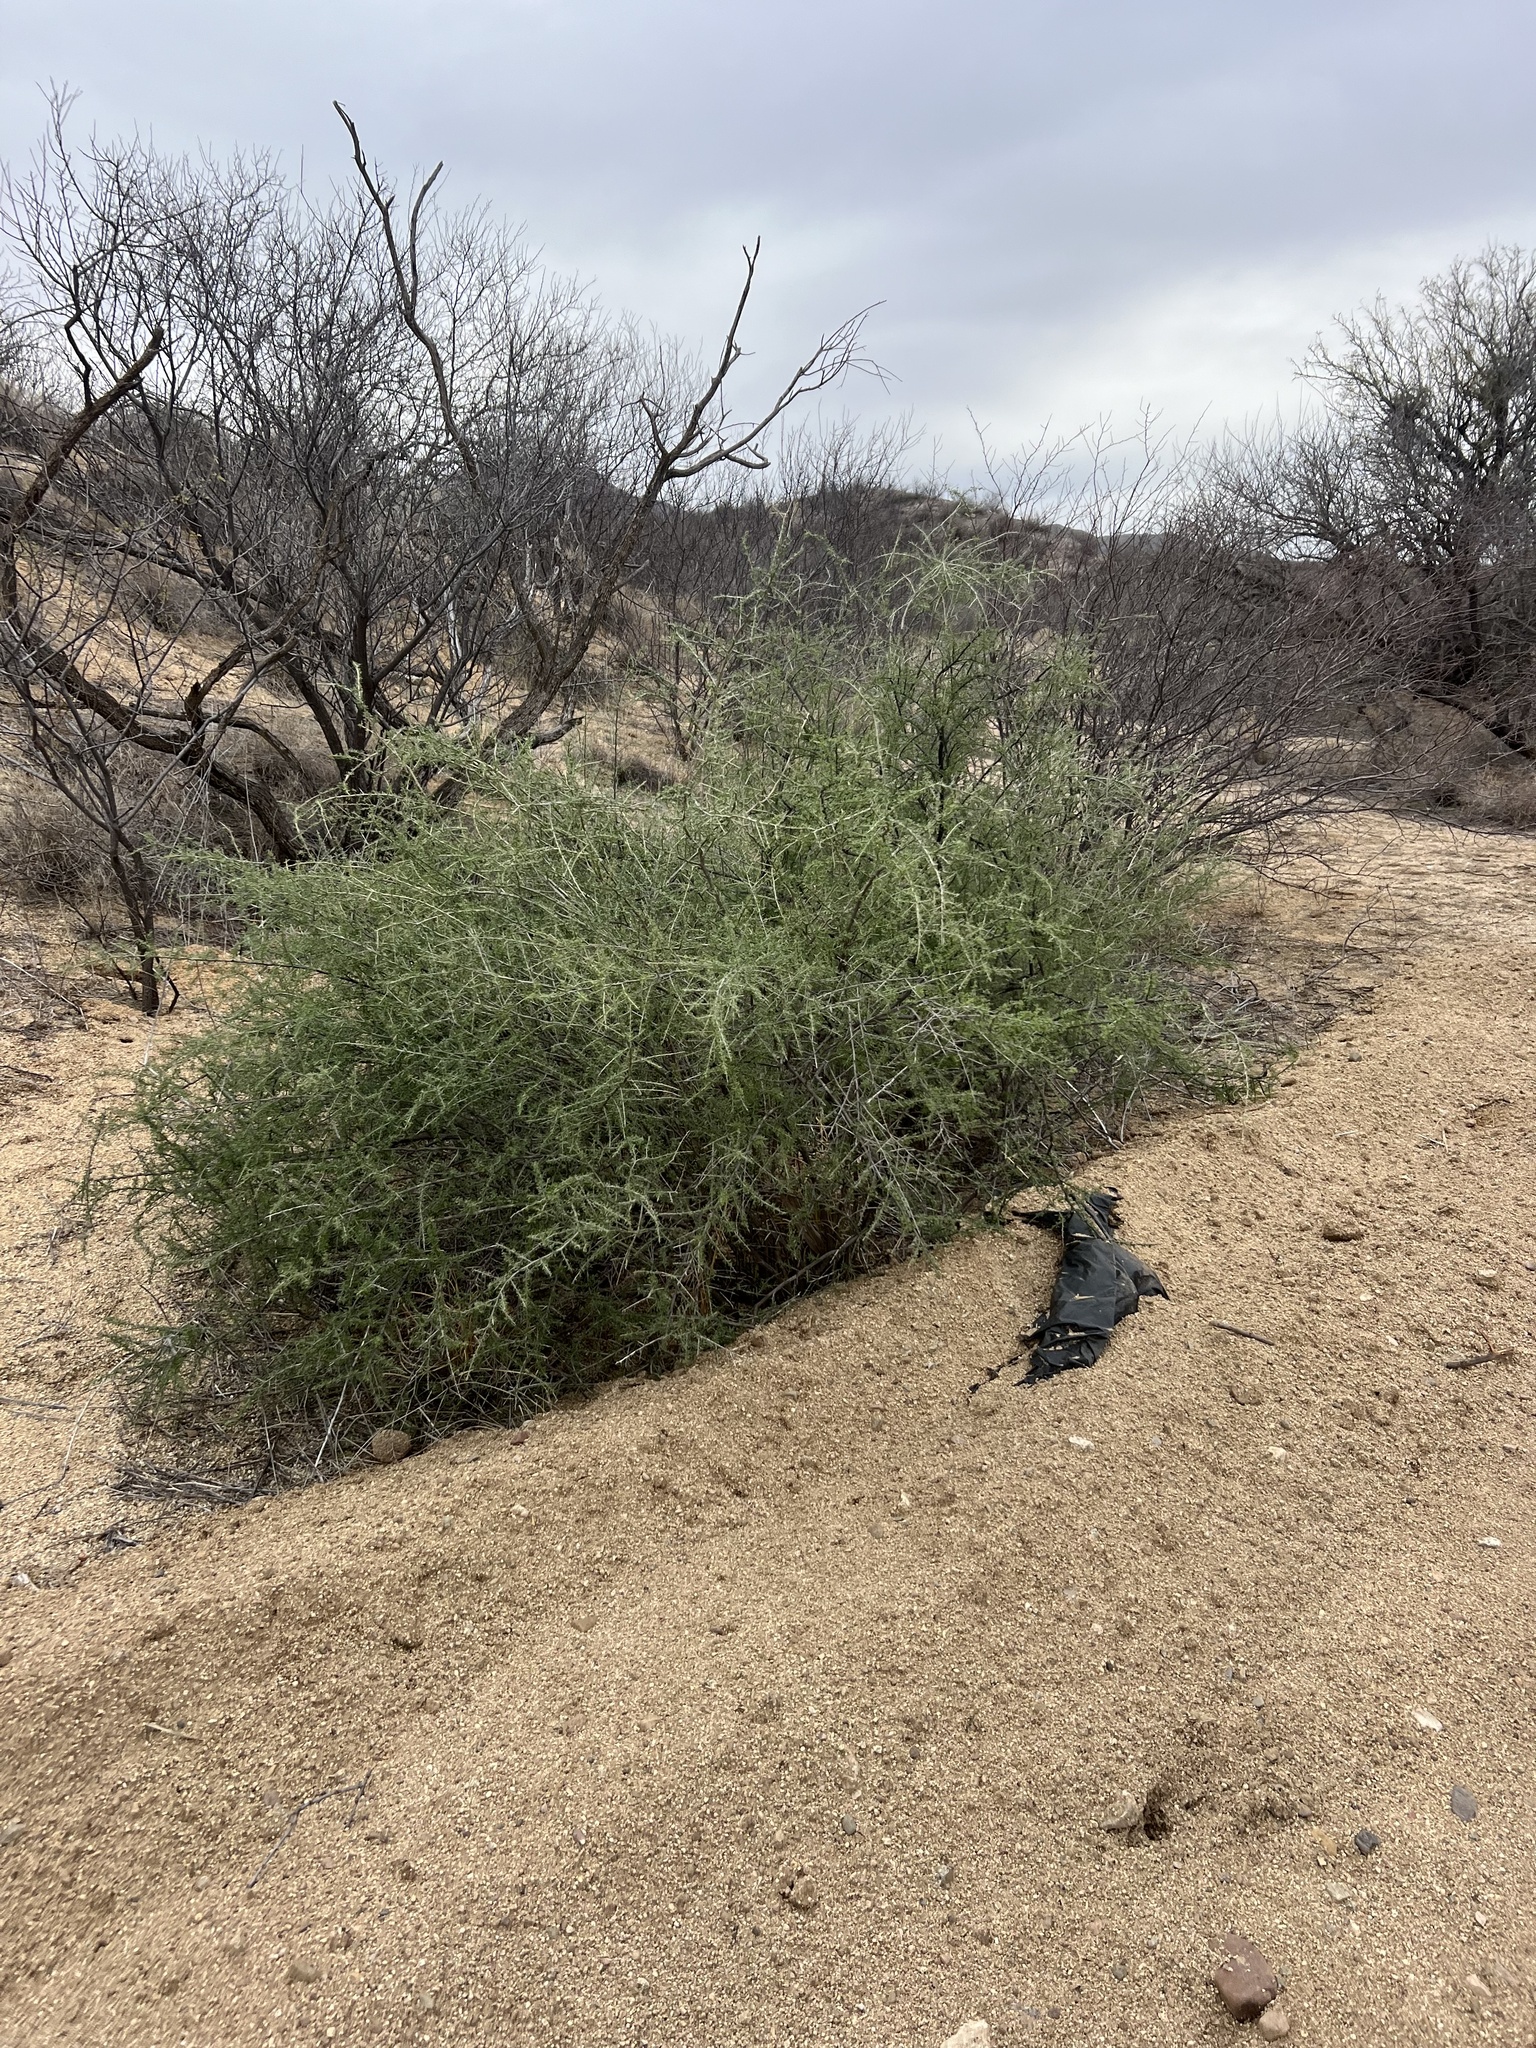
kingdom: Plantae
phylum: Tracheophyta
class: Magnoliopsida
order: Solanales
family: Solanaceae
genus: Lycium
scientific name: Lycium andersonii
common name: Water-jacket
